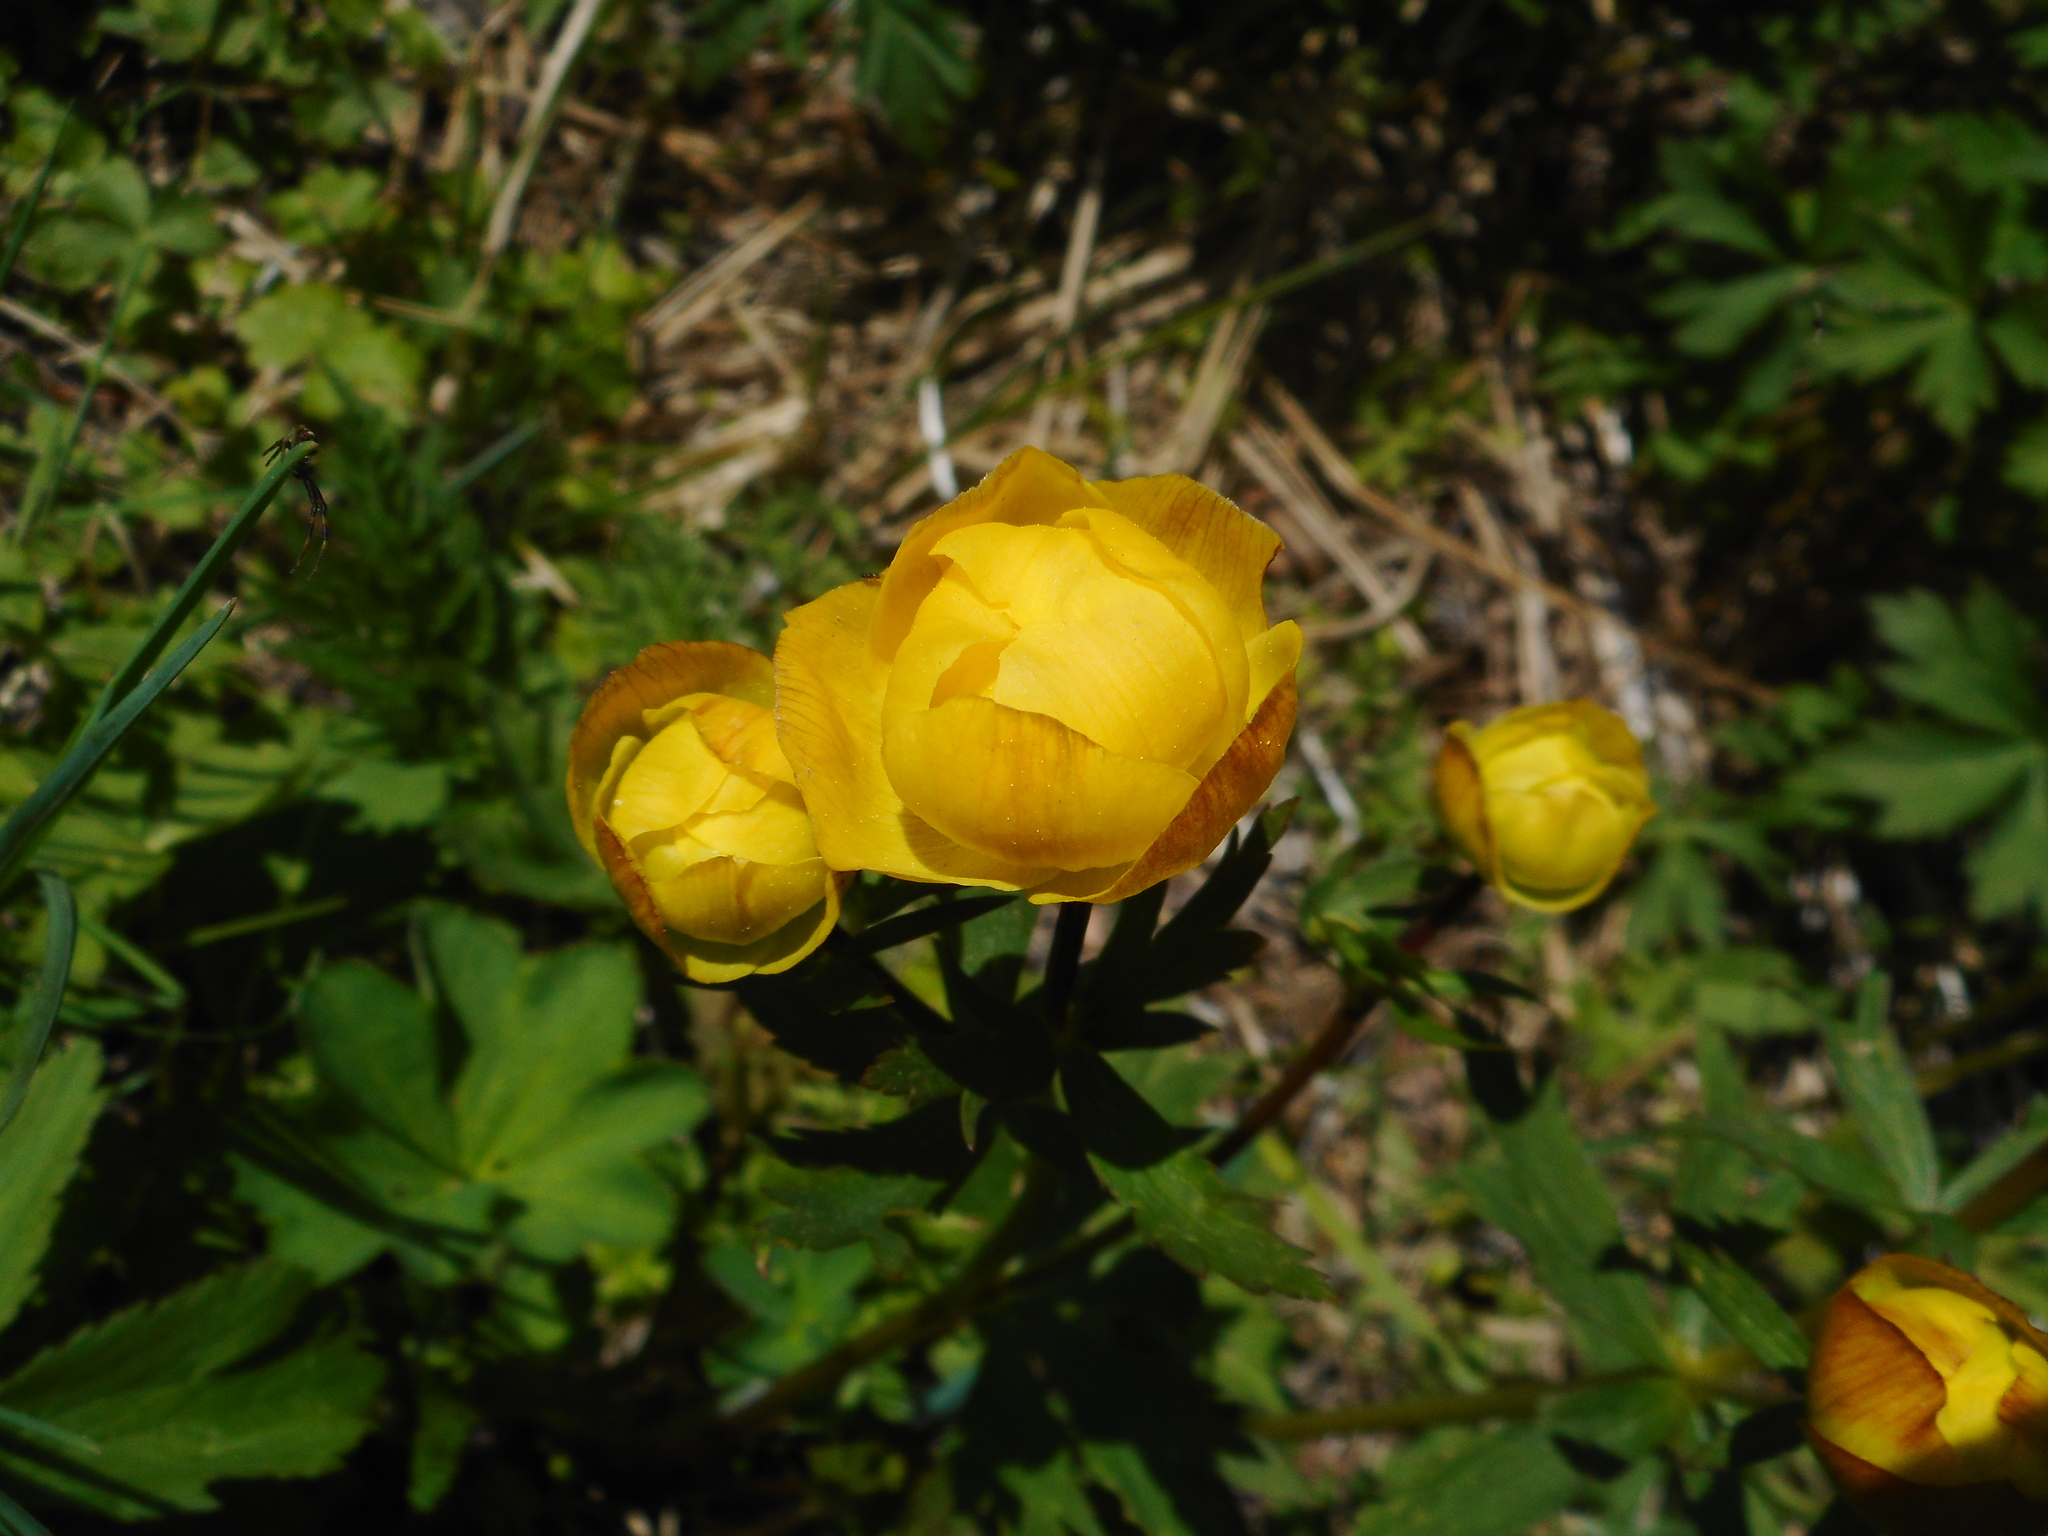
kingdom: Plantae
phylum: Tracheophyta
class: Magnoliopsida
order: Ranunculales
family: Ranunculaceae
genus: Trollius
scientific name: Trollius europaeus
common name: European globeflower
